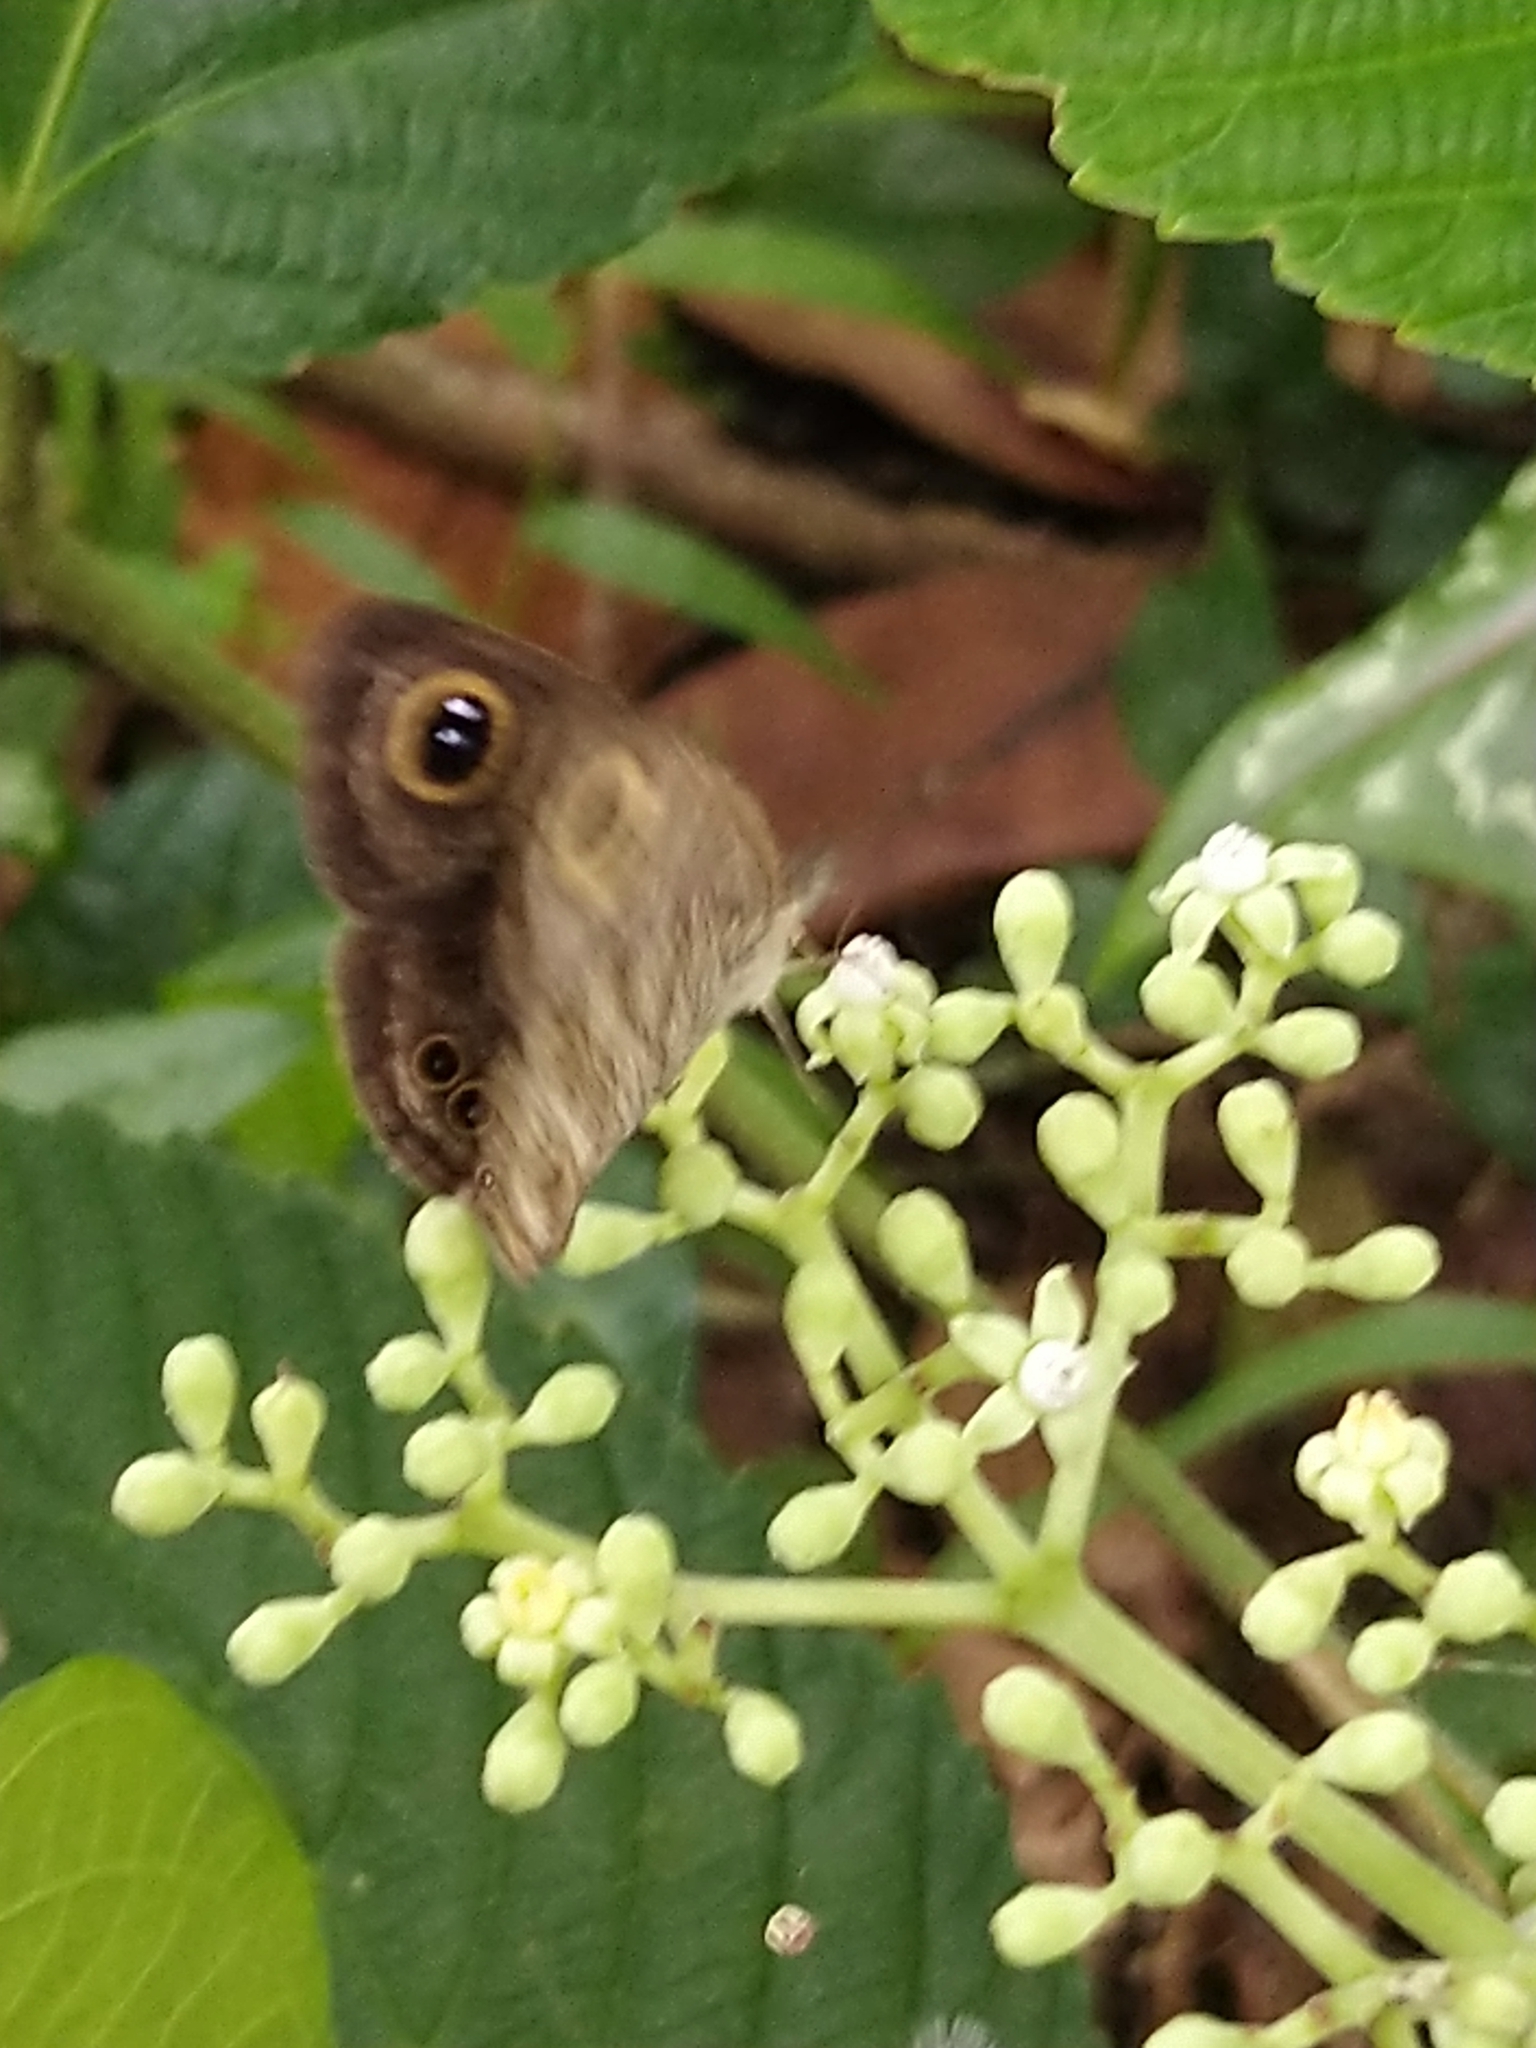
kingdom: Animalia
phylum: Arthropoda
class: Insecta
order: Lepidoptera
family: Nymphalidae
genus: Ypthima
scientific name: Ypthima baldus
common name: Common five-ring
